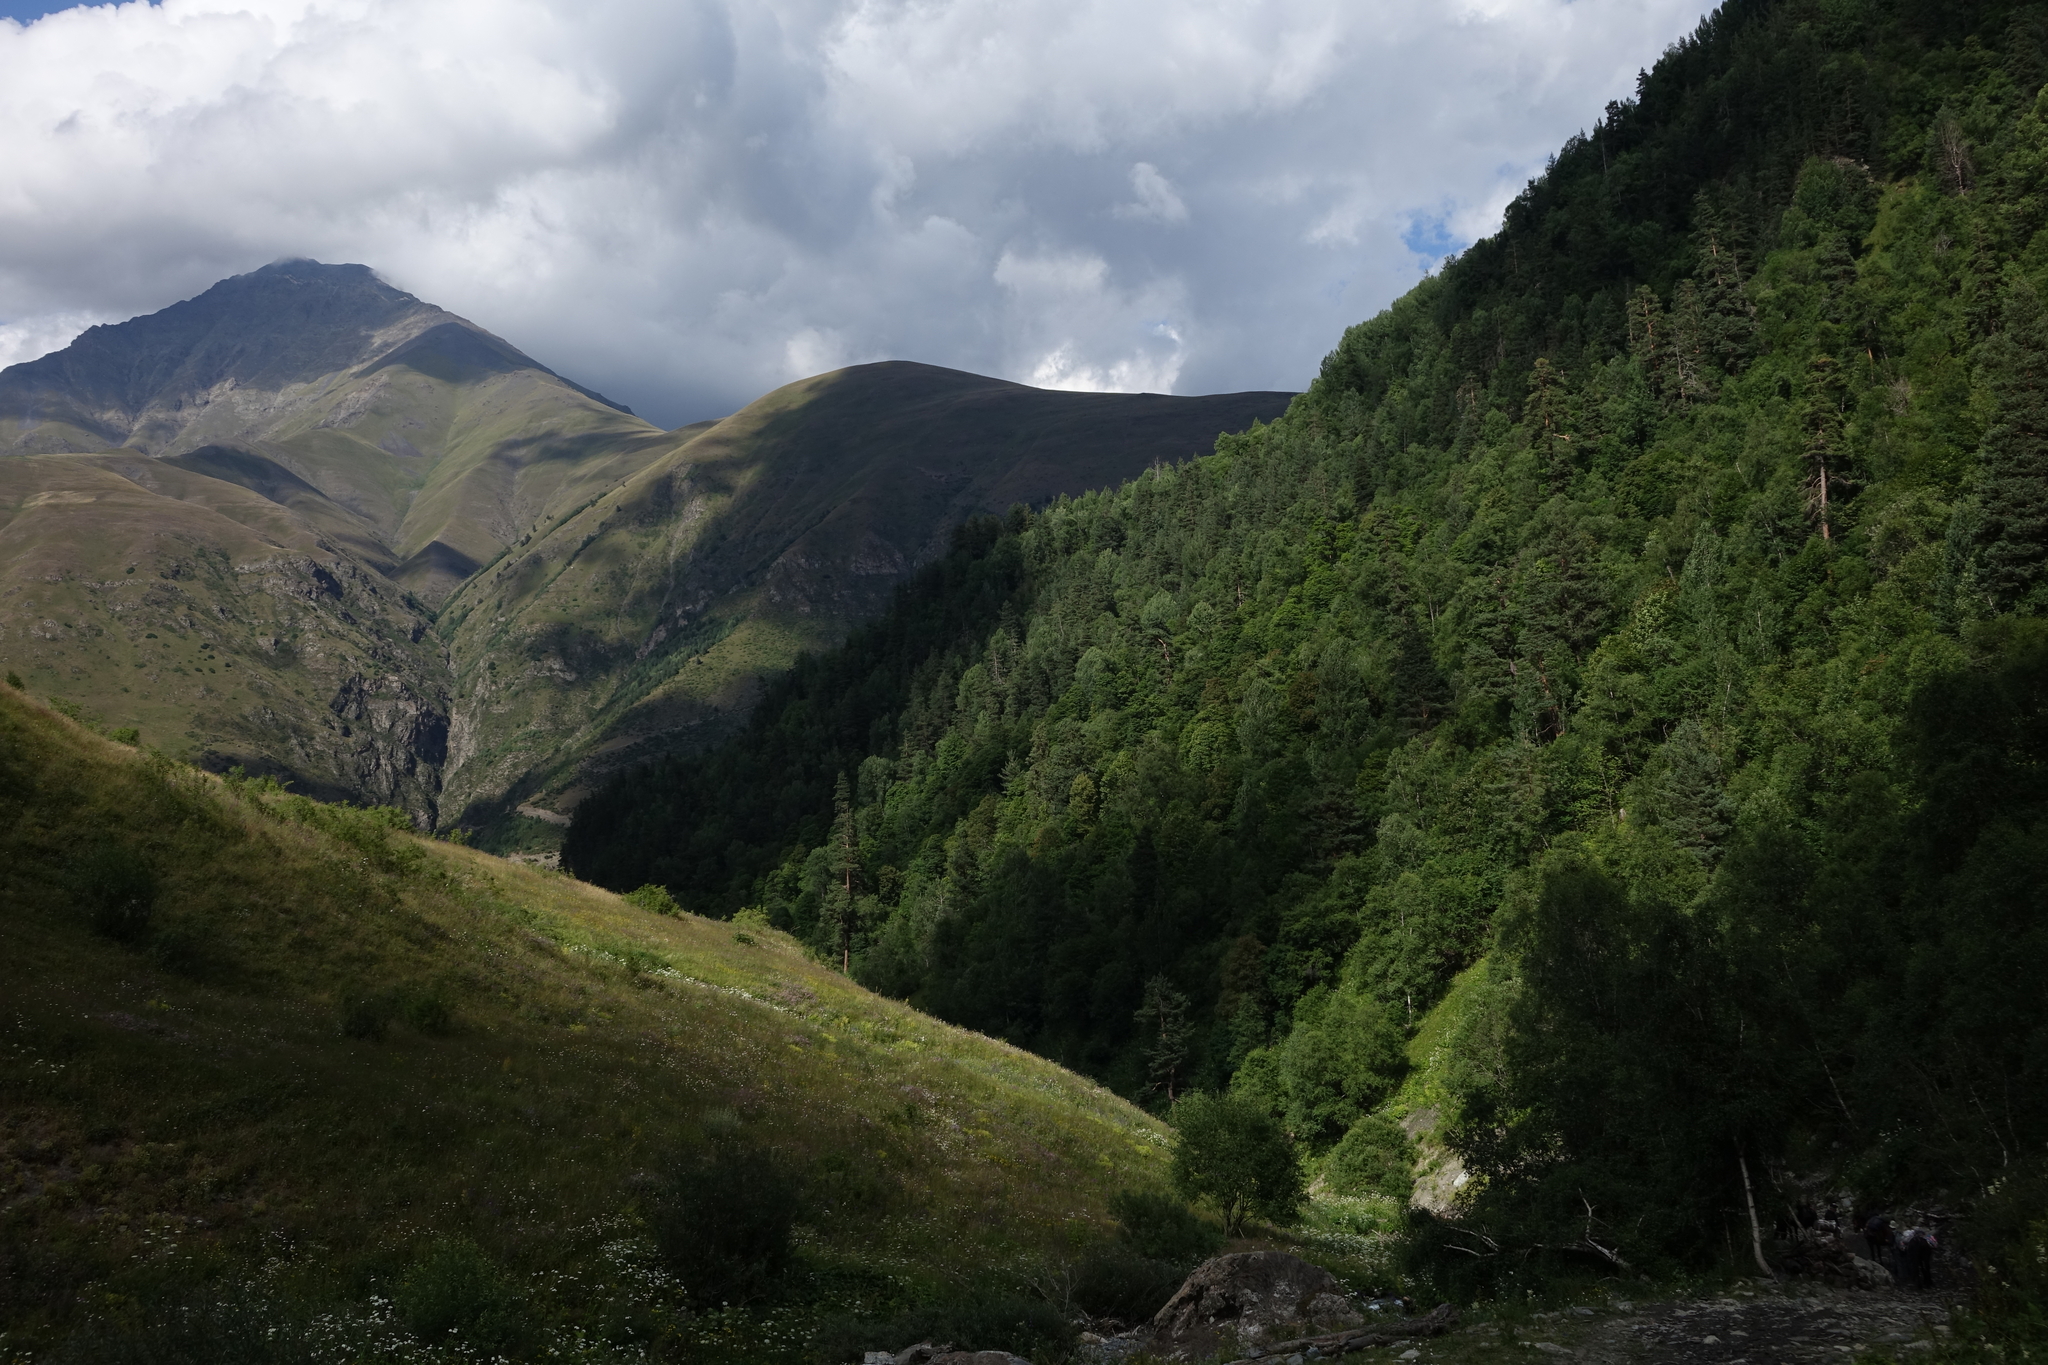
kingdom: Plantae
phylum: Tracheophyta
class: Pinopsida
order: Pinales
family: Pinaceae
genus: Pinus
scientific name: Pinus sylvestris
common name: Scots pine
